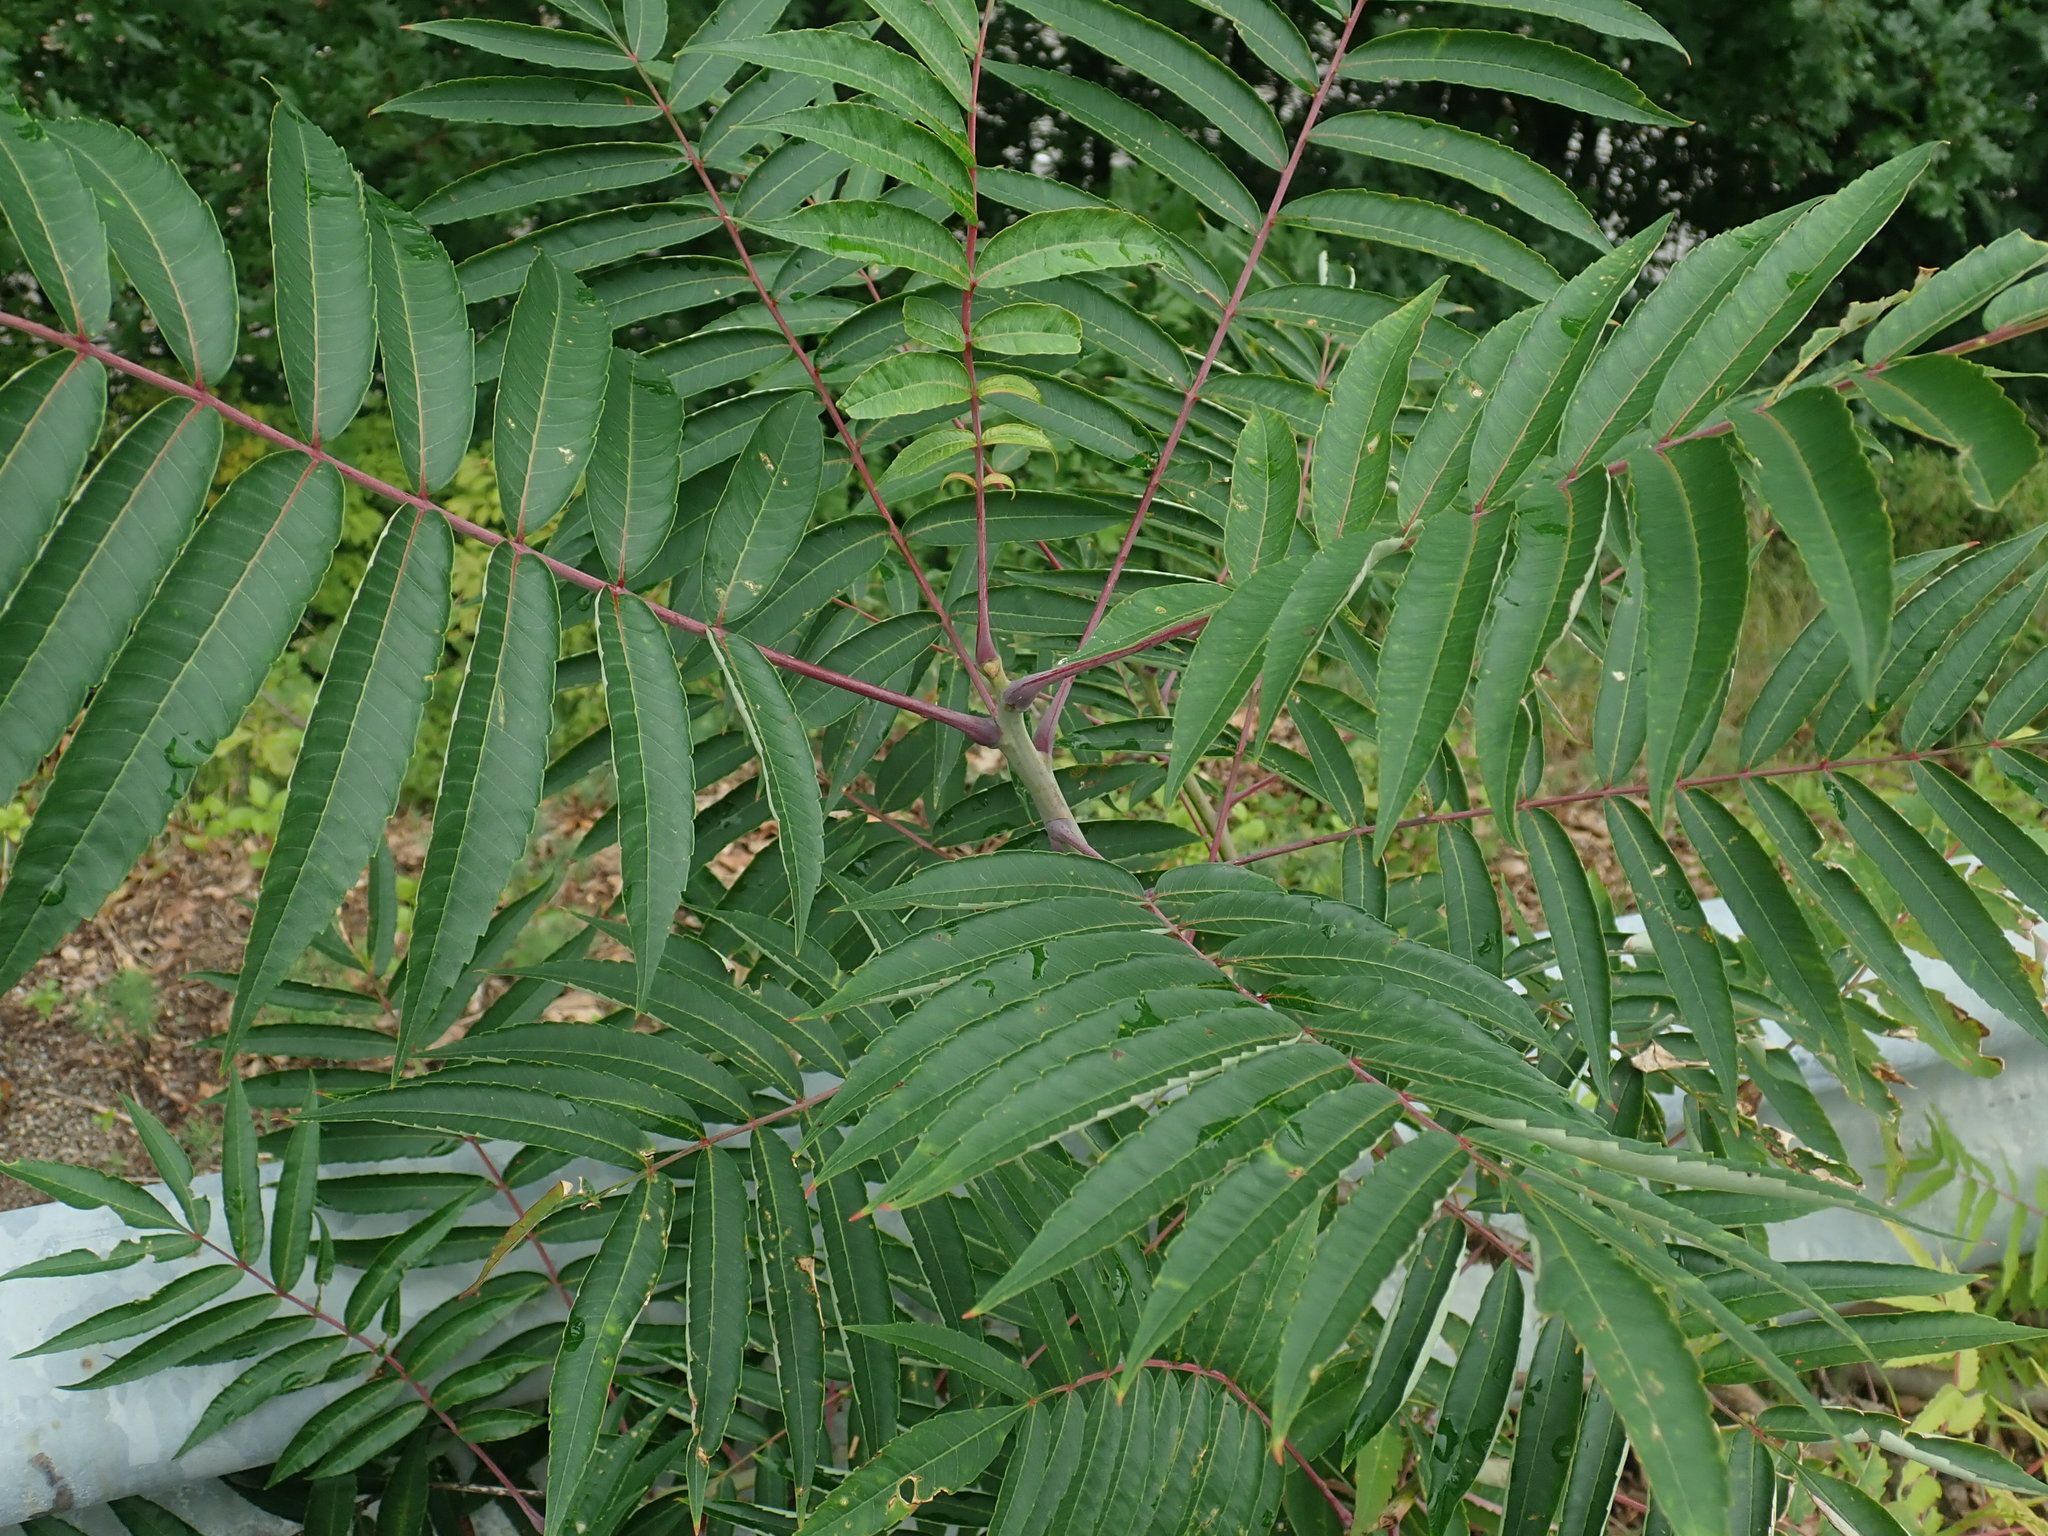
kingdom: Plantae
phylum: Tracheophyta
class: Magnoliopsida
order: Sapindales
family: Anacardiaceae
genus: Rhus
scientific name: Rhus glabra
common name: Scarlet sumac
